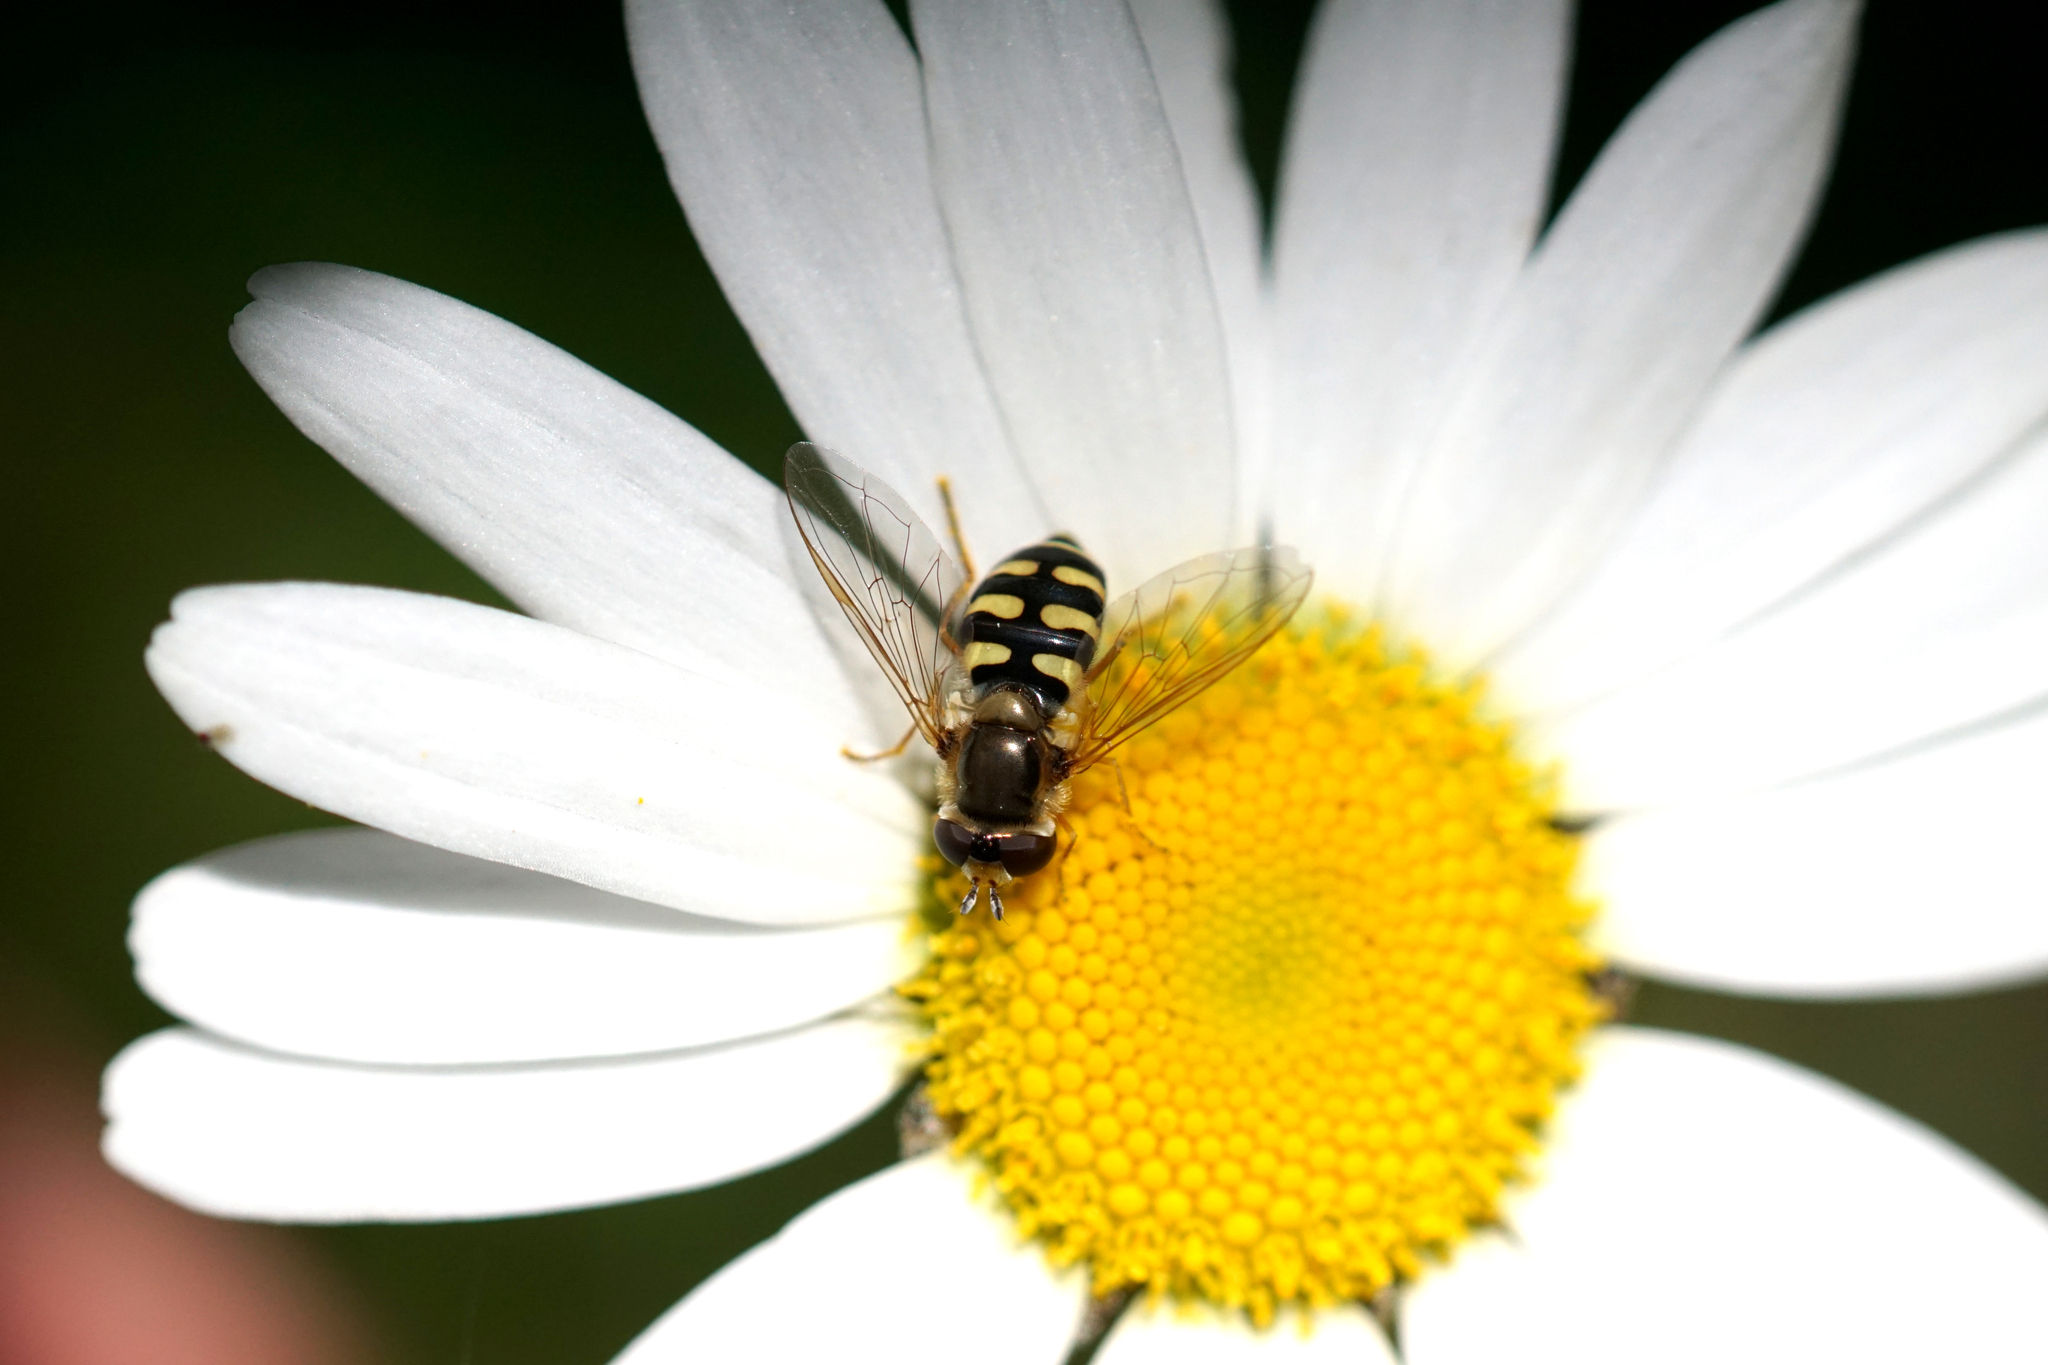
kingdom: Animalia
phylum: Arthropoda
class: Insecta
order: Diptera
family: Syrphidae
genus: Eupeodes
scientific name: Eupeodes corollae
